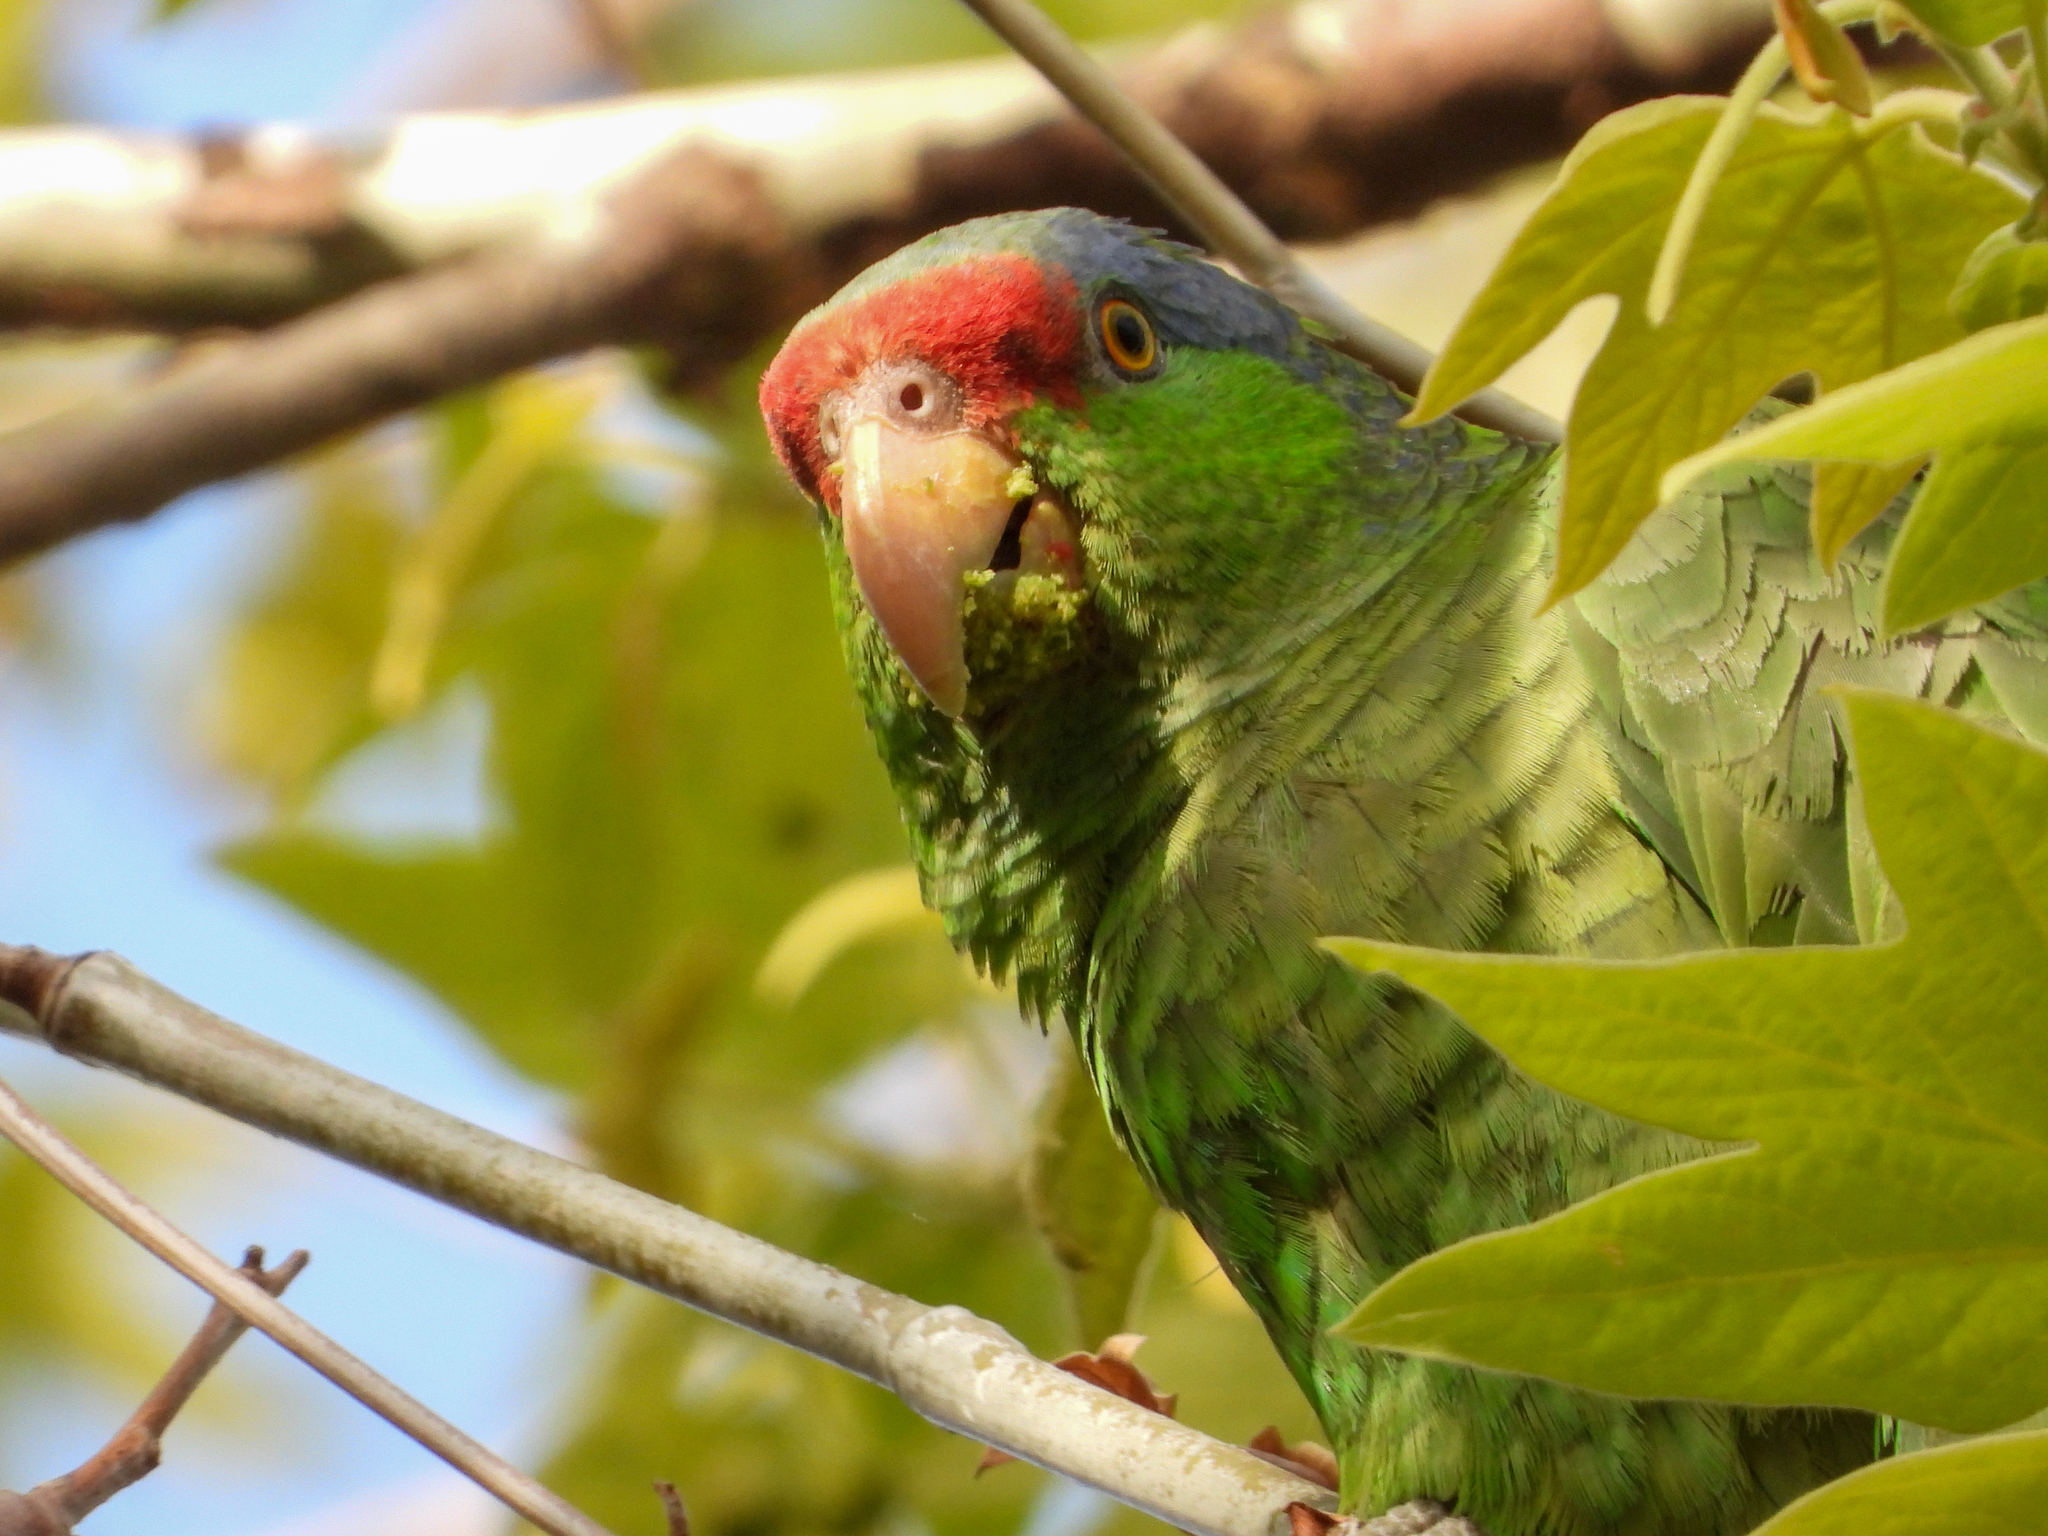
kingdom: Animalia
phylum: Chordata
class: Aves
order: Psittaciformes
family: Psittacidae
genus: Amazona
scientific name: Amazona
